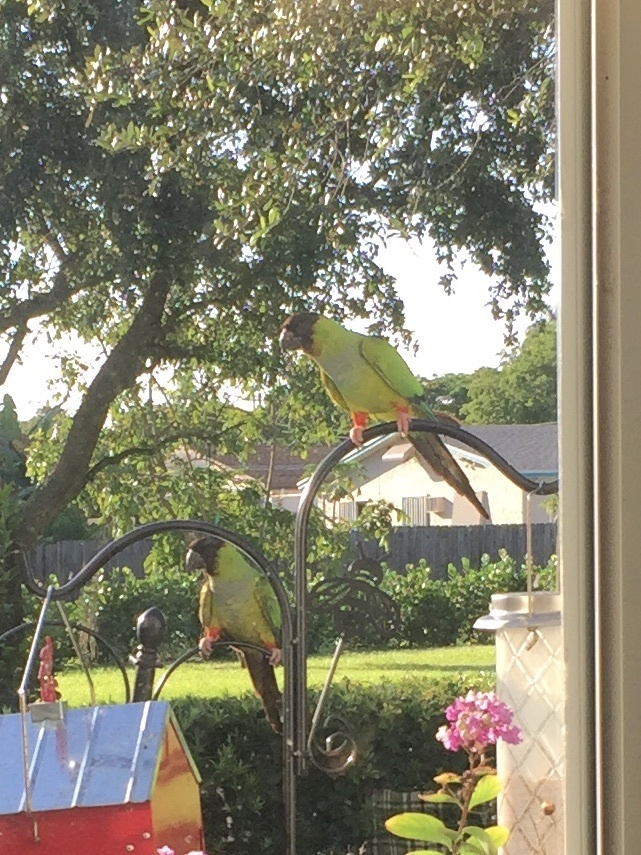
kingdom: Animalia
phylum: Chordata
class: Aves
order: Psittaciformes
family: Psittacidae
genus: Nandayus
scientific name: Nandayus nenday
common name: Nanday parakeet
